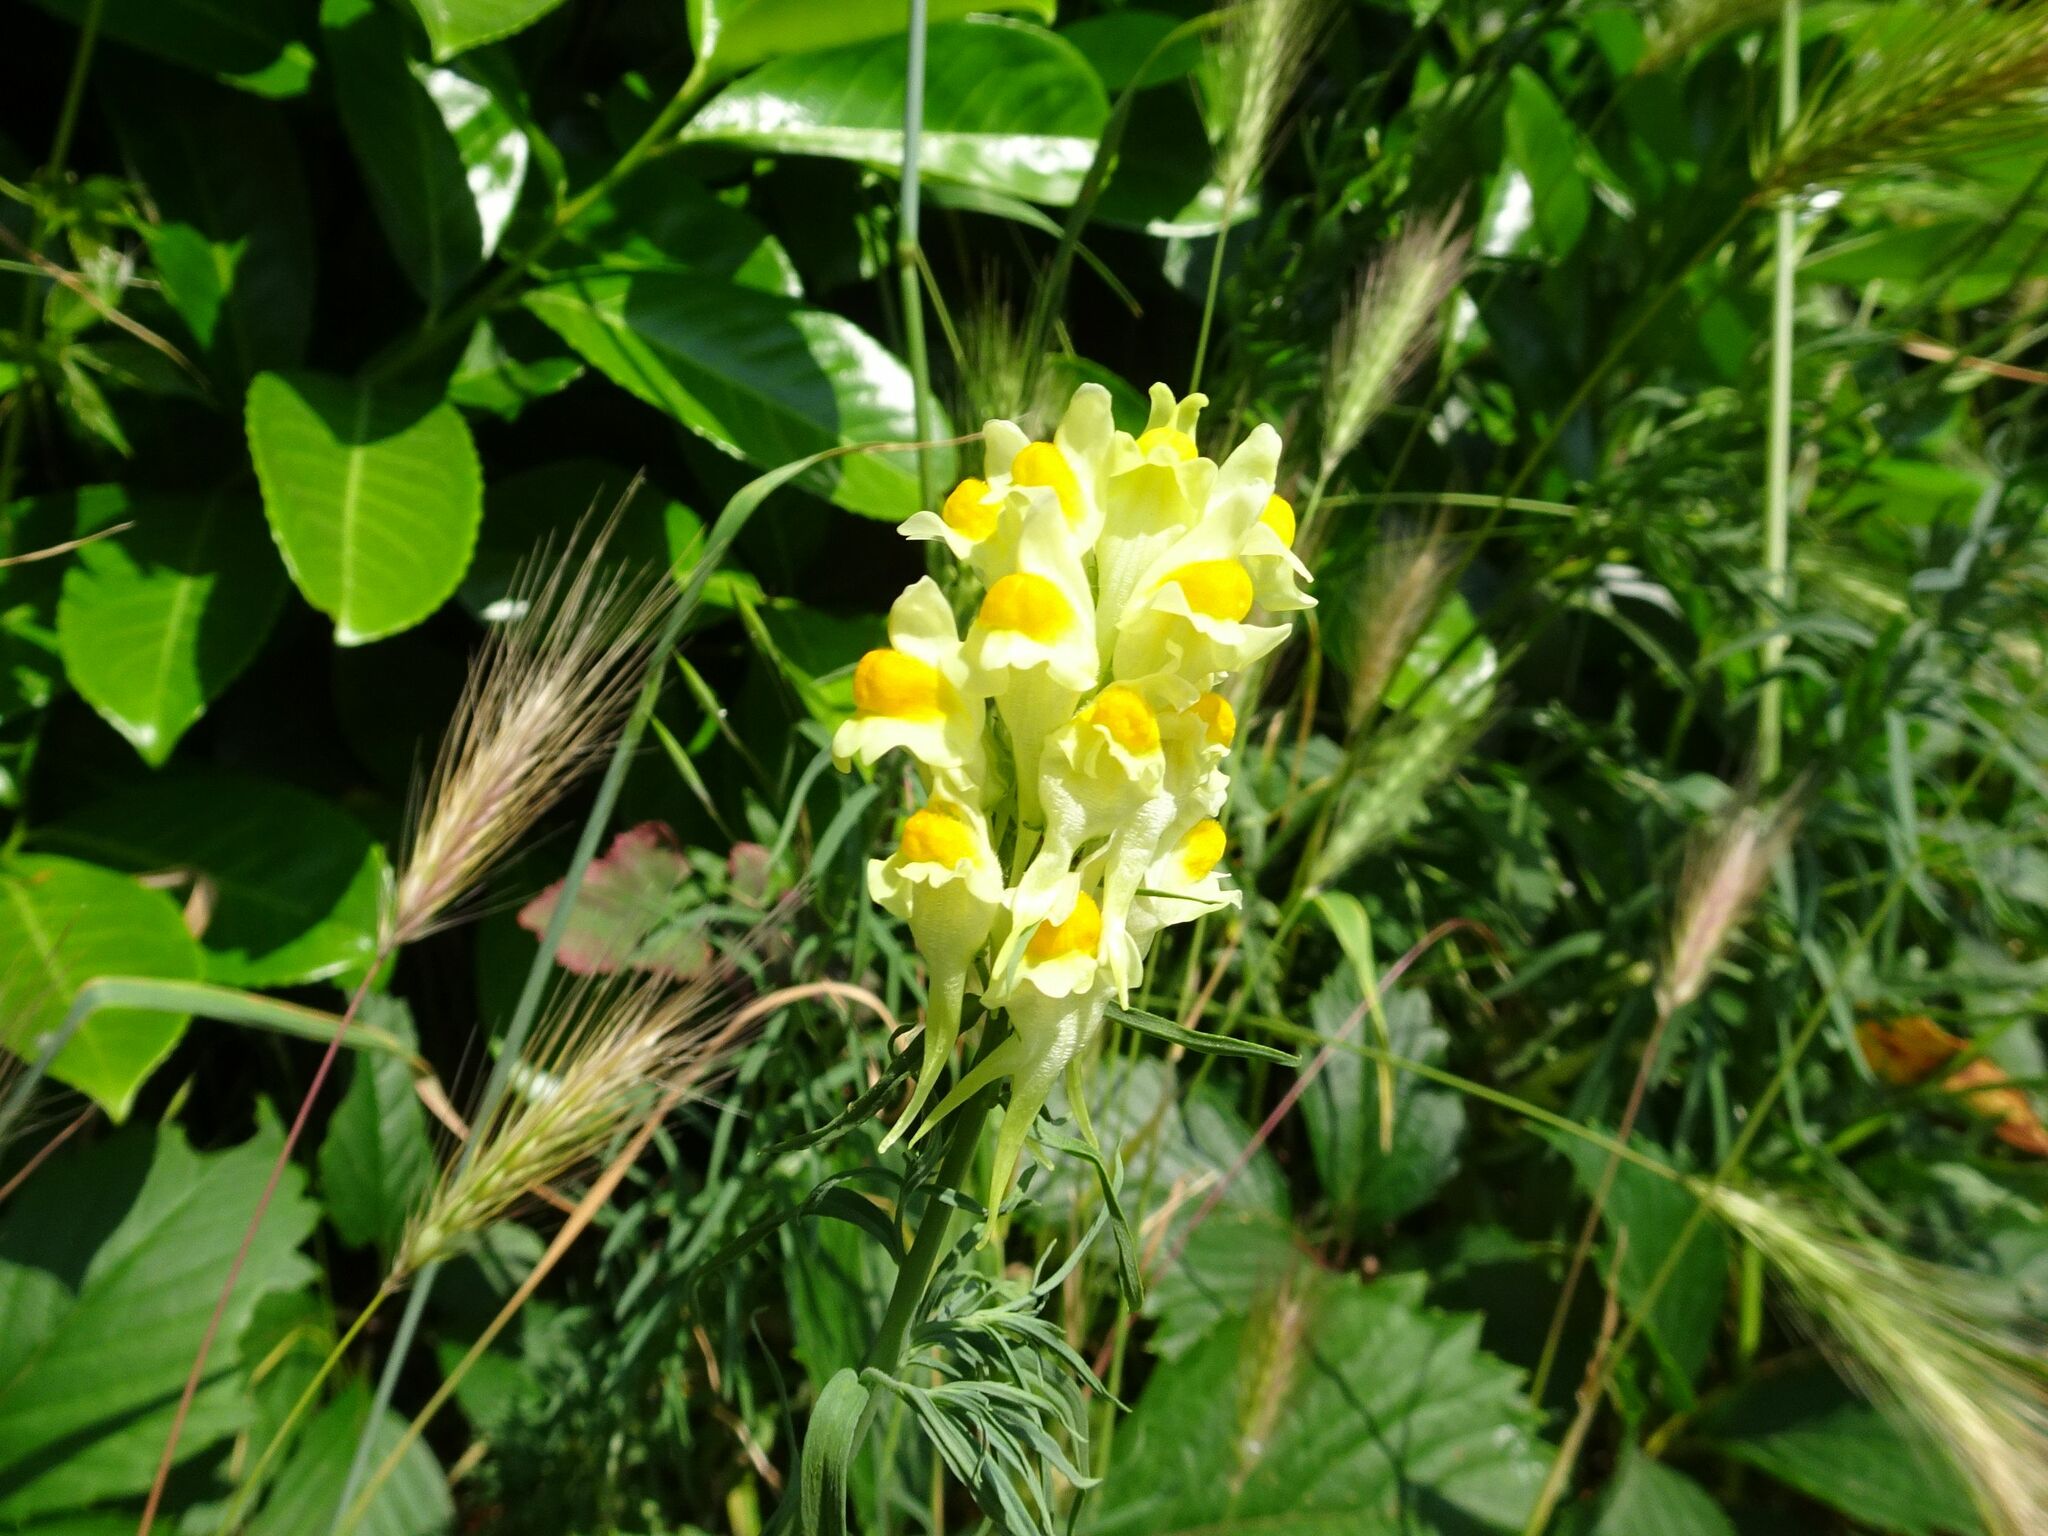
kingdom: Plantae
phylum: Tracheophyta
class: Magnoliopsida
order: Lamiales
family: Plantaginaceae
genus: Linaria
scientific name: Linaria vulgaris
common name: Butter and eggs
